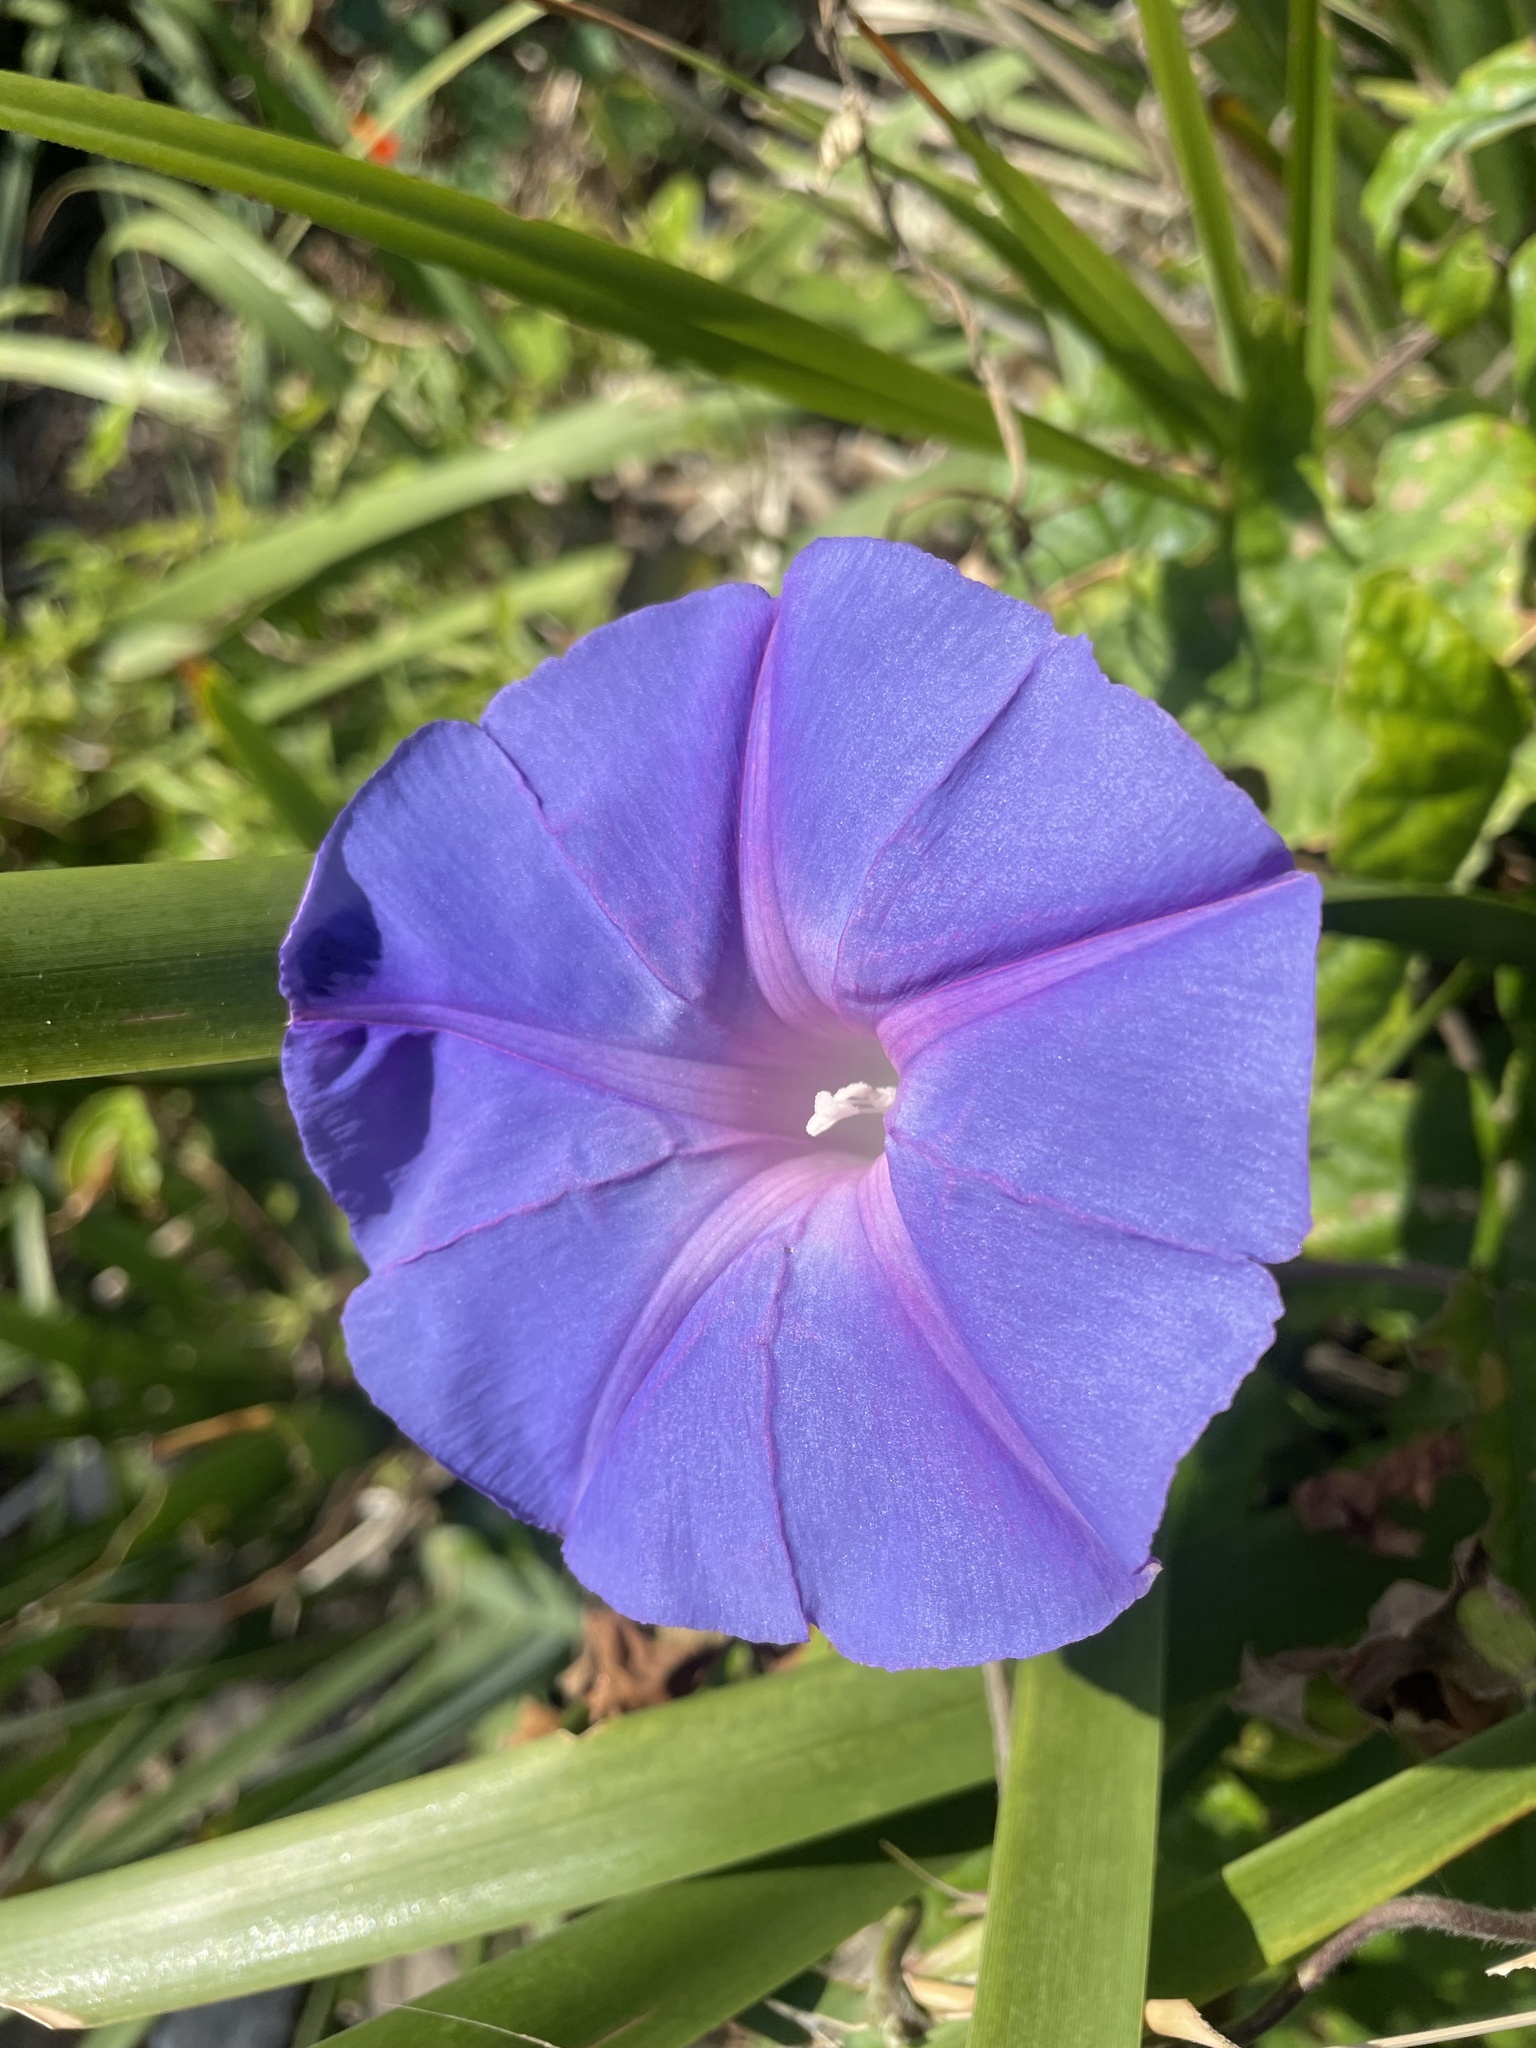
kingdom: Plantae
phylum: Tracheophyta
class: Magnoliopsida
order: Solanales
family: Convolvulaceae
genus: Ipomoea
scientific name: Ipomoea indica
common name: Blue dawnflower
